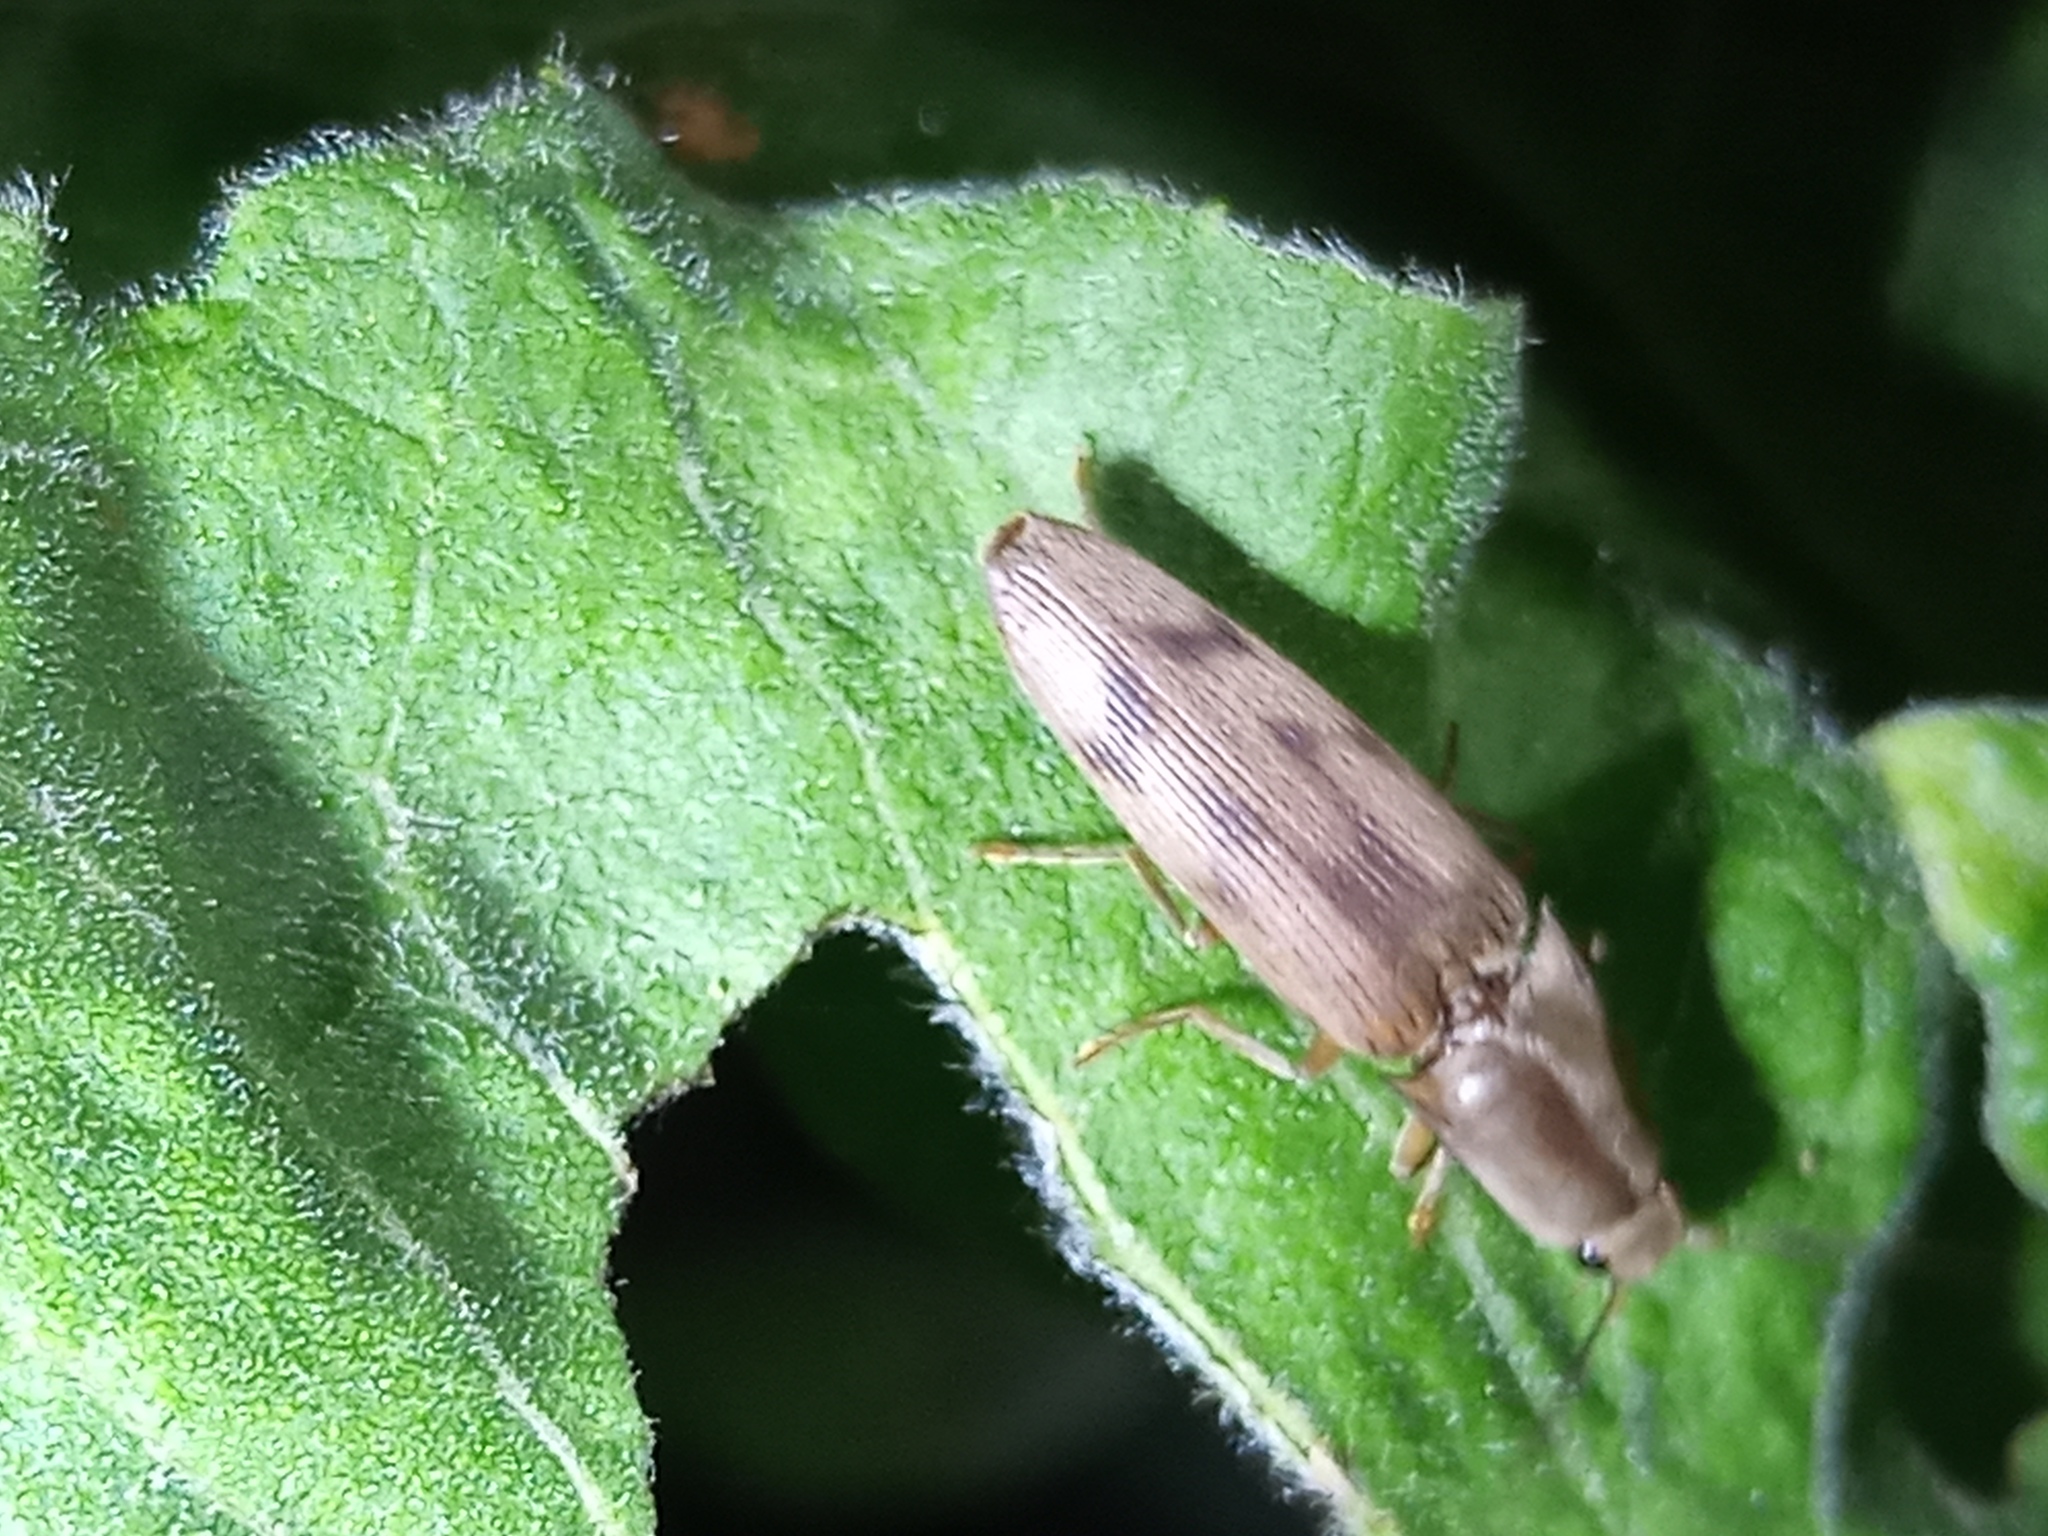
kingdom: Animalia
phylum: Arthropoda
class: Insecta
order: Coleoptera
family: Elateridae
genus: Monocrepidius
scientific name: Monocrepidius
